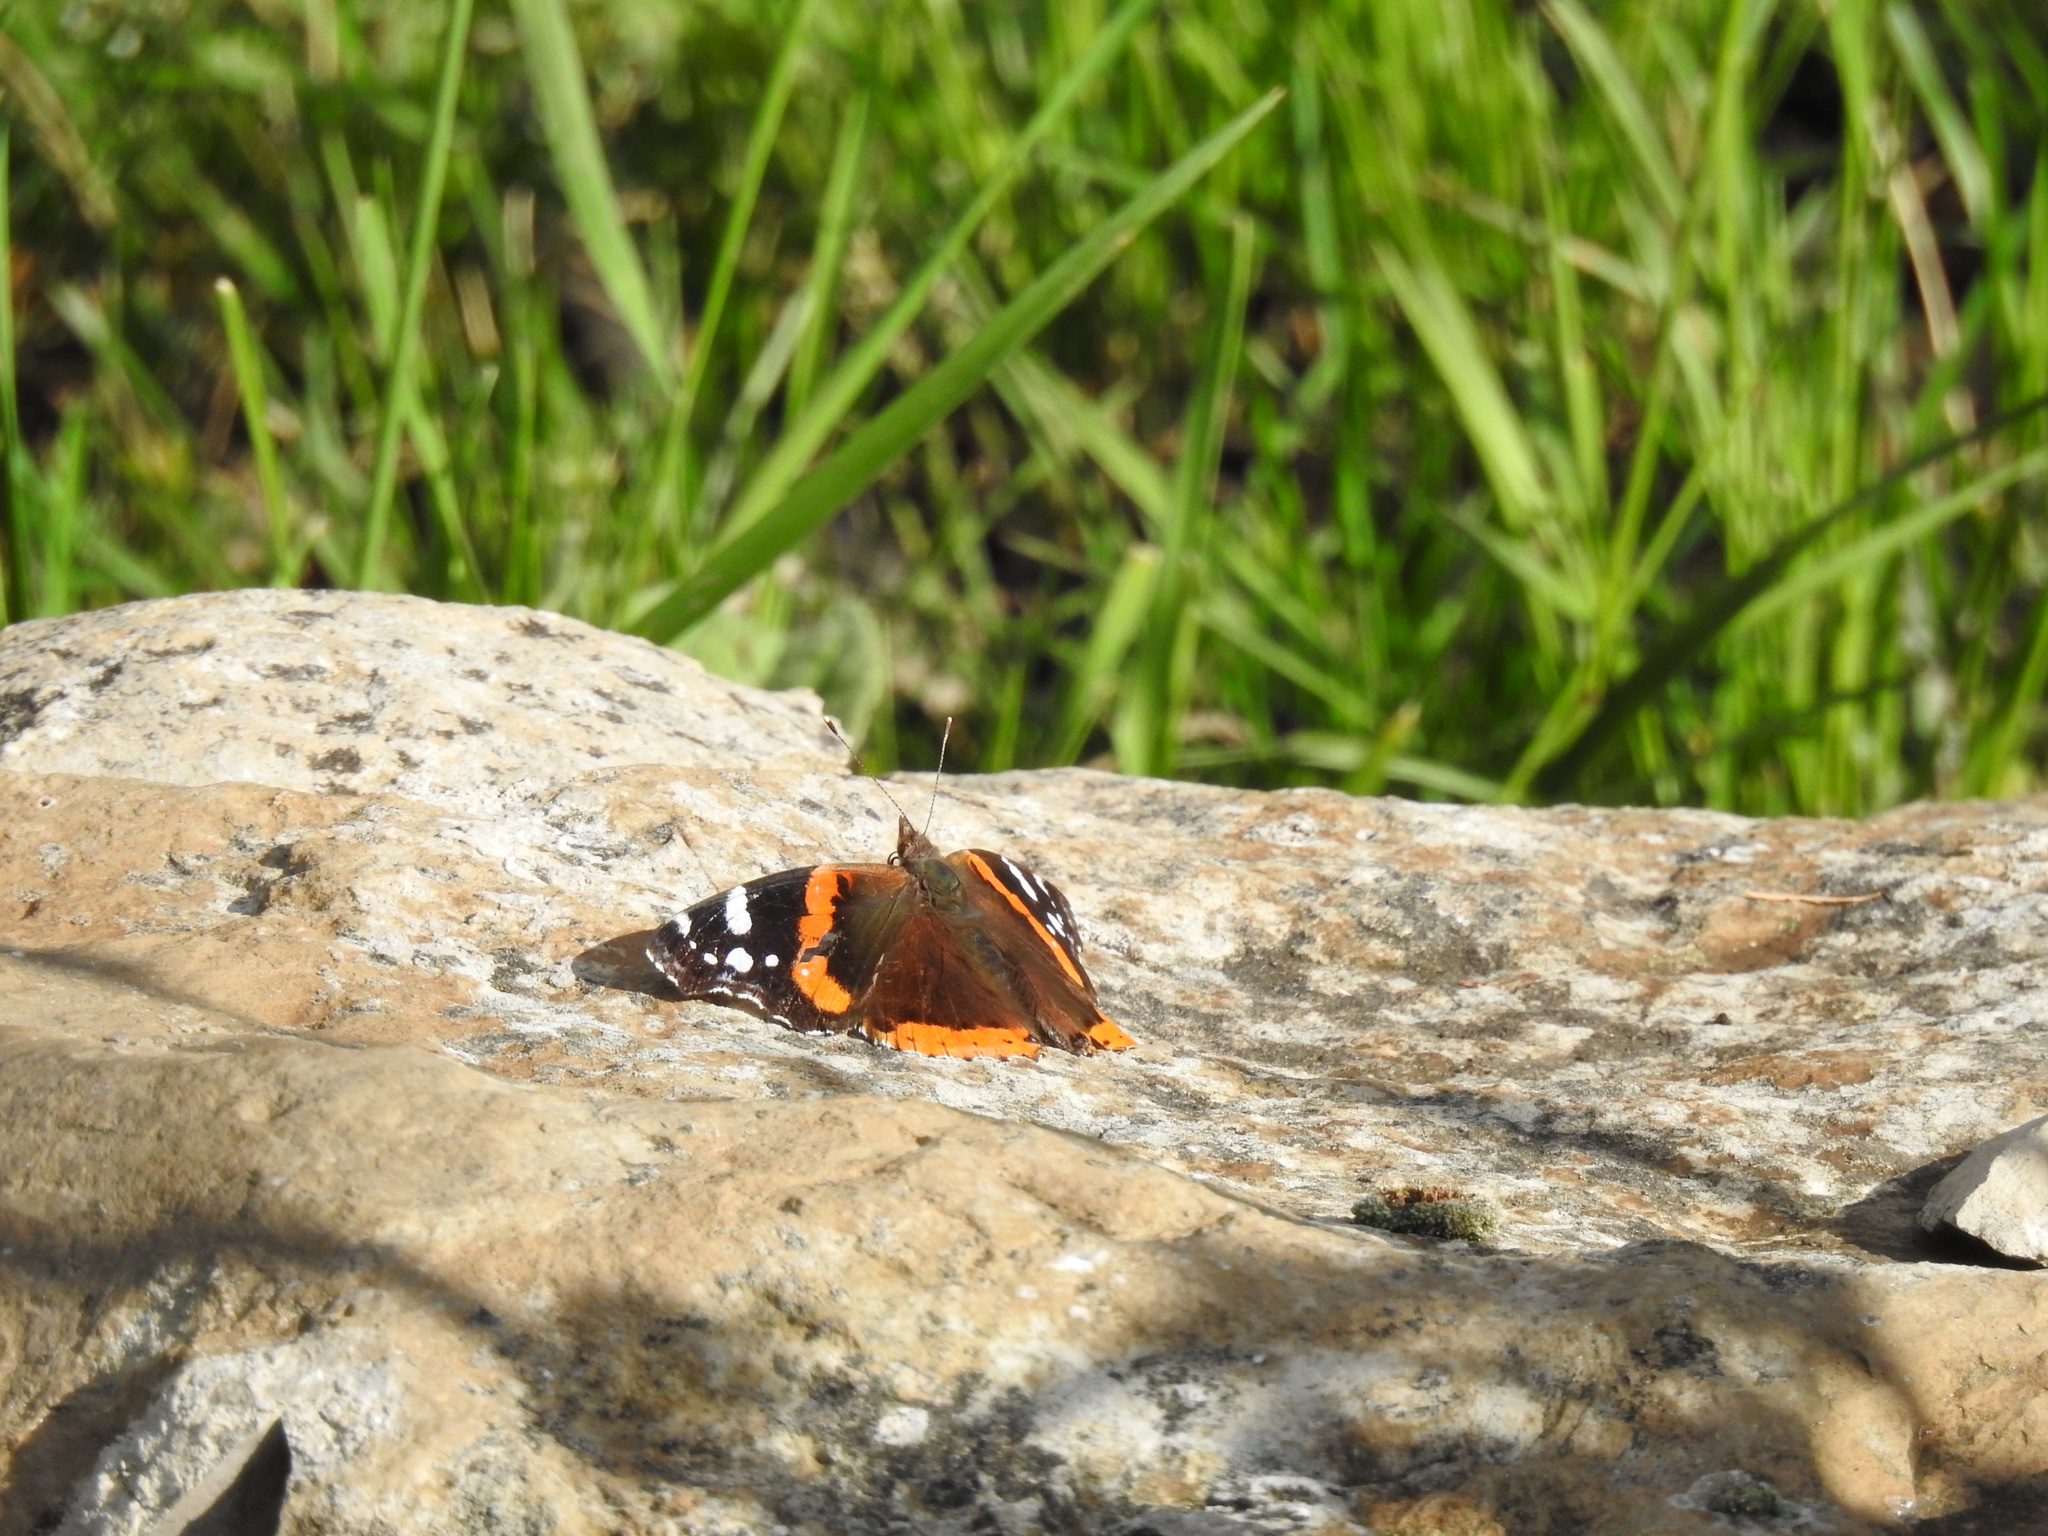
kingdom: Animalia
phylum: Arthropoda
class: Insecta
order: Lepidoptera
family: Nymphalidae
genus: Vanessa
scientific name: Vanessa atalanta
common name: Red admiral
